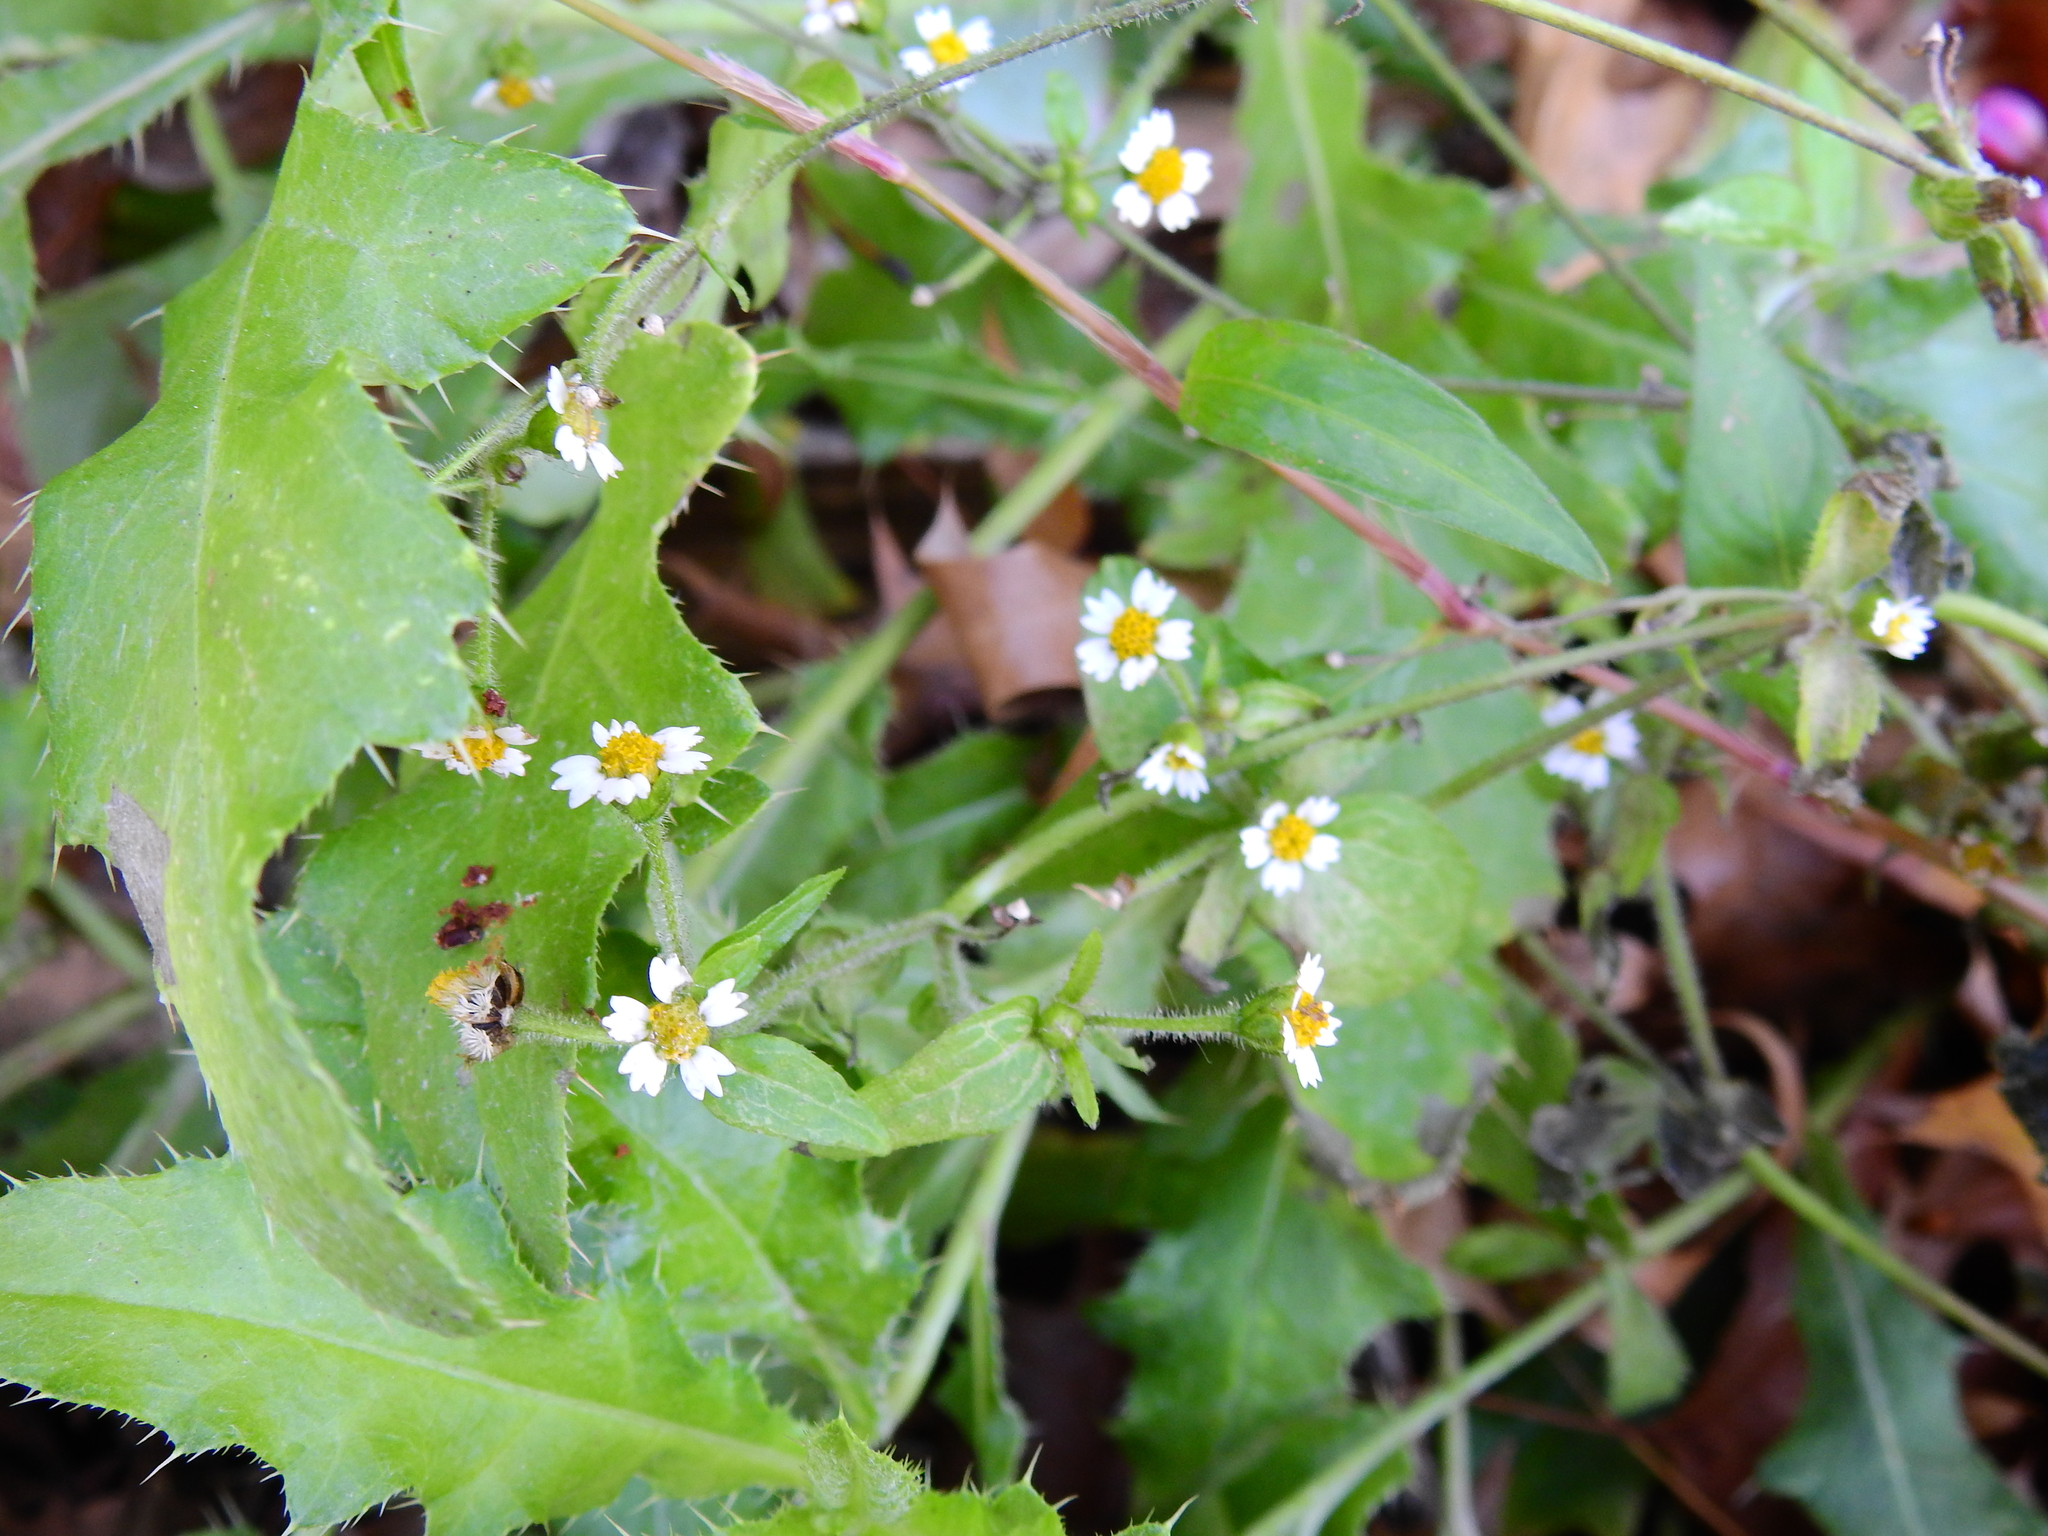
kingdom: Plantae
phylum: Tracheophyta
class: Magnoliopsida
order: Asterales
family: Asteraceae
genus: Galinsoga
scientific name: Galinsoga quadriradiata
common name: Shaggy soldier
